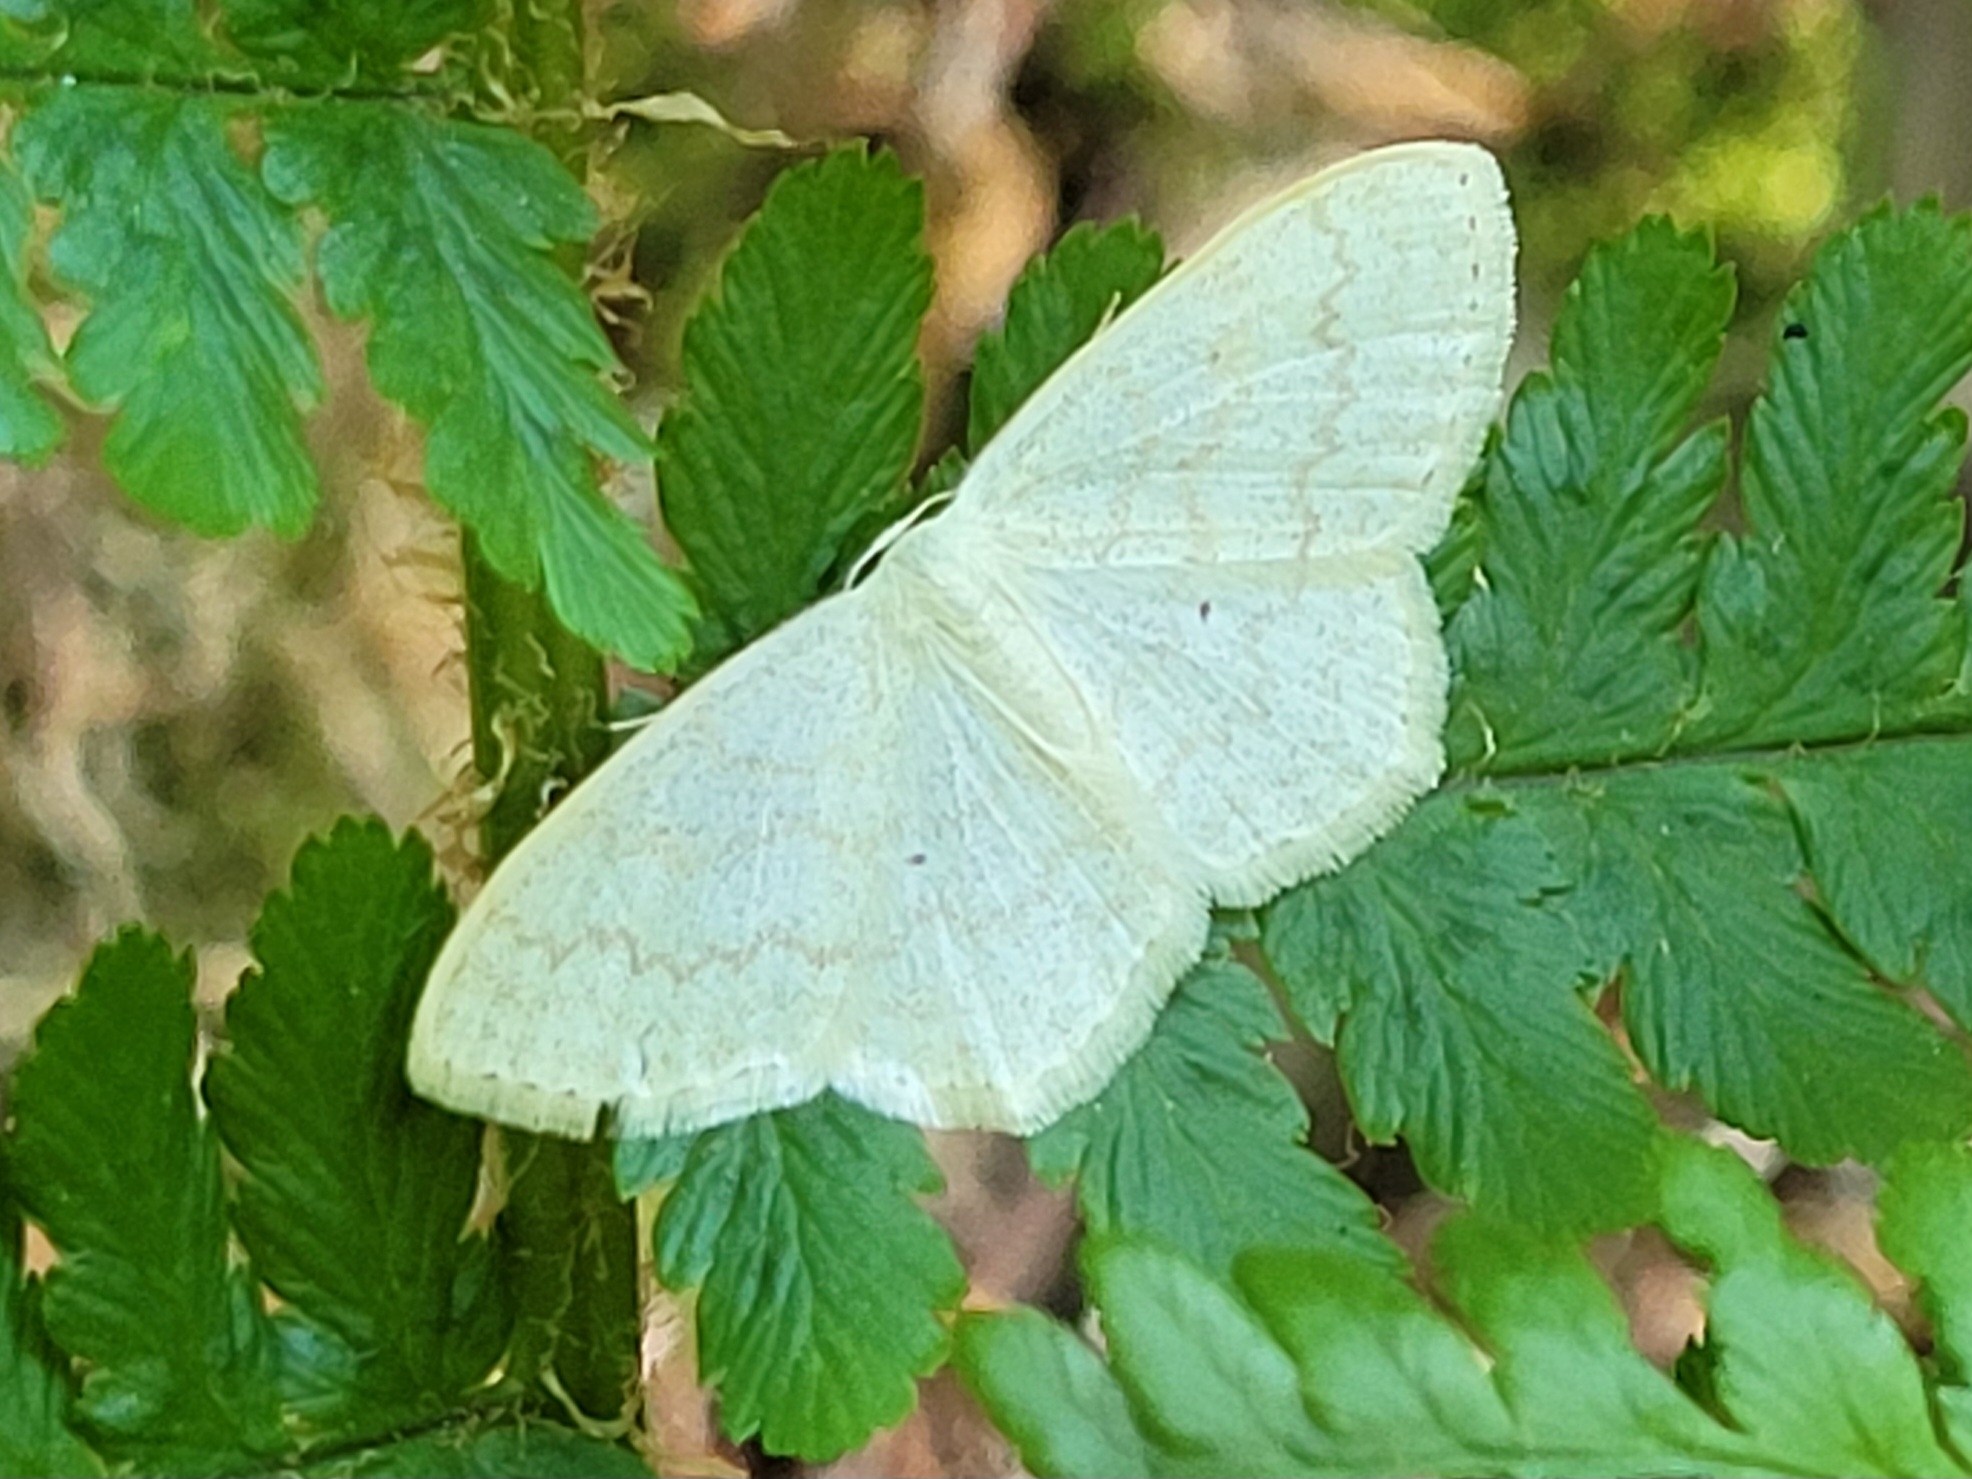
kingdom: Animalia
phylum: Arthropoda
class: Insecta
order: Lepidoptera
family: Geometridae
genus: Scopula
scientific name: Scopula floslactata
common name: Cream wave
